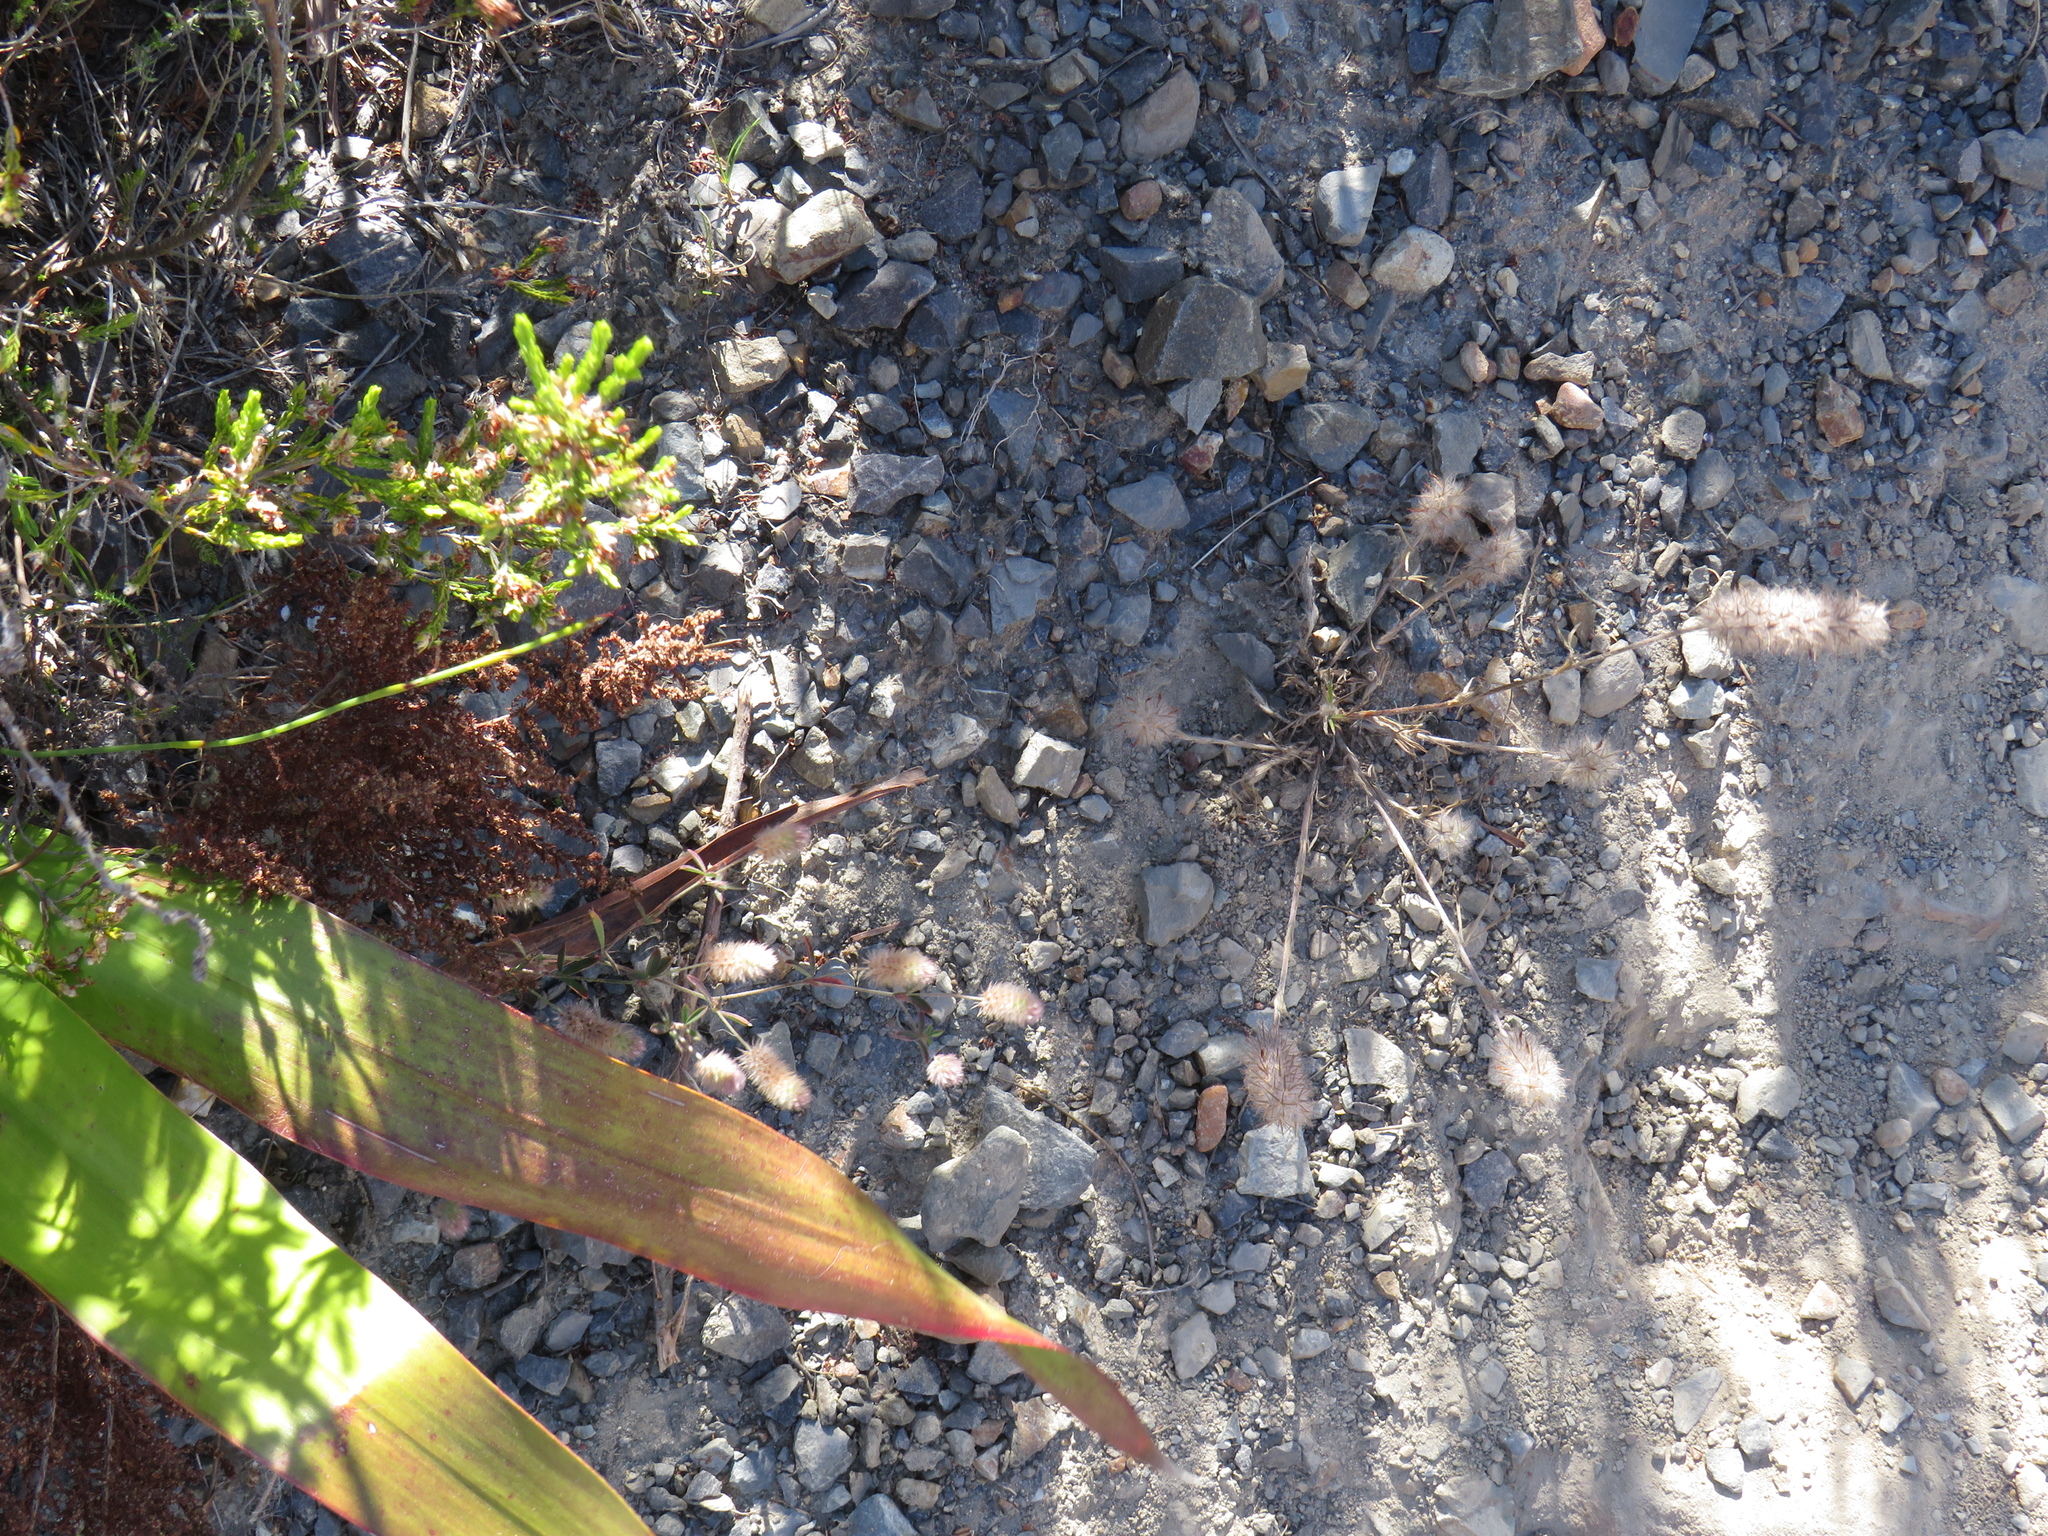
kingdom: Plantae
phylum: Tracheophyta
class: Magnoliopsida
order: Fabales
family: Fabaceae
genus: Trifolium
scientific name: Trifolium angustifolium
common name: Narrow clover
